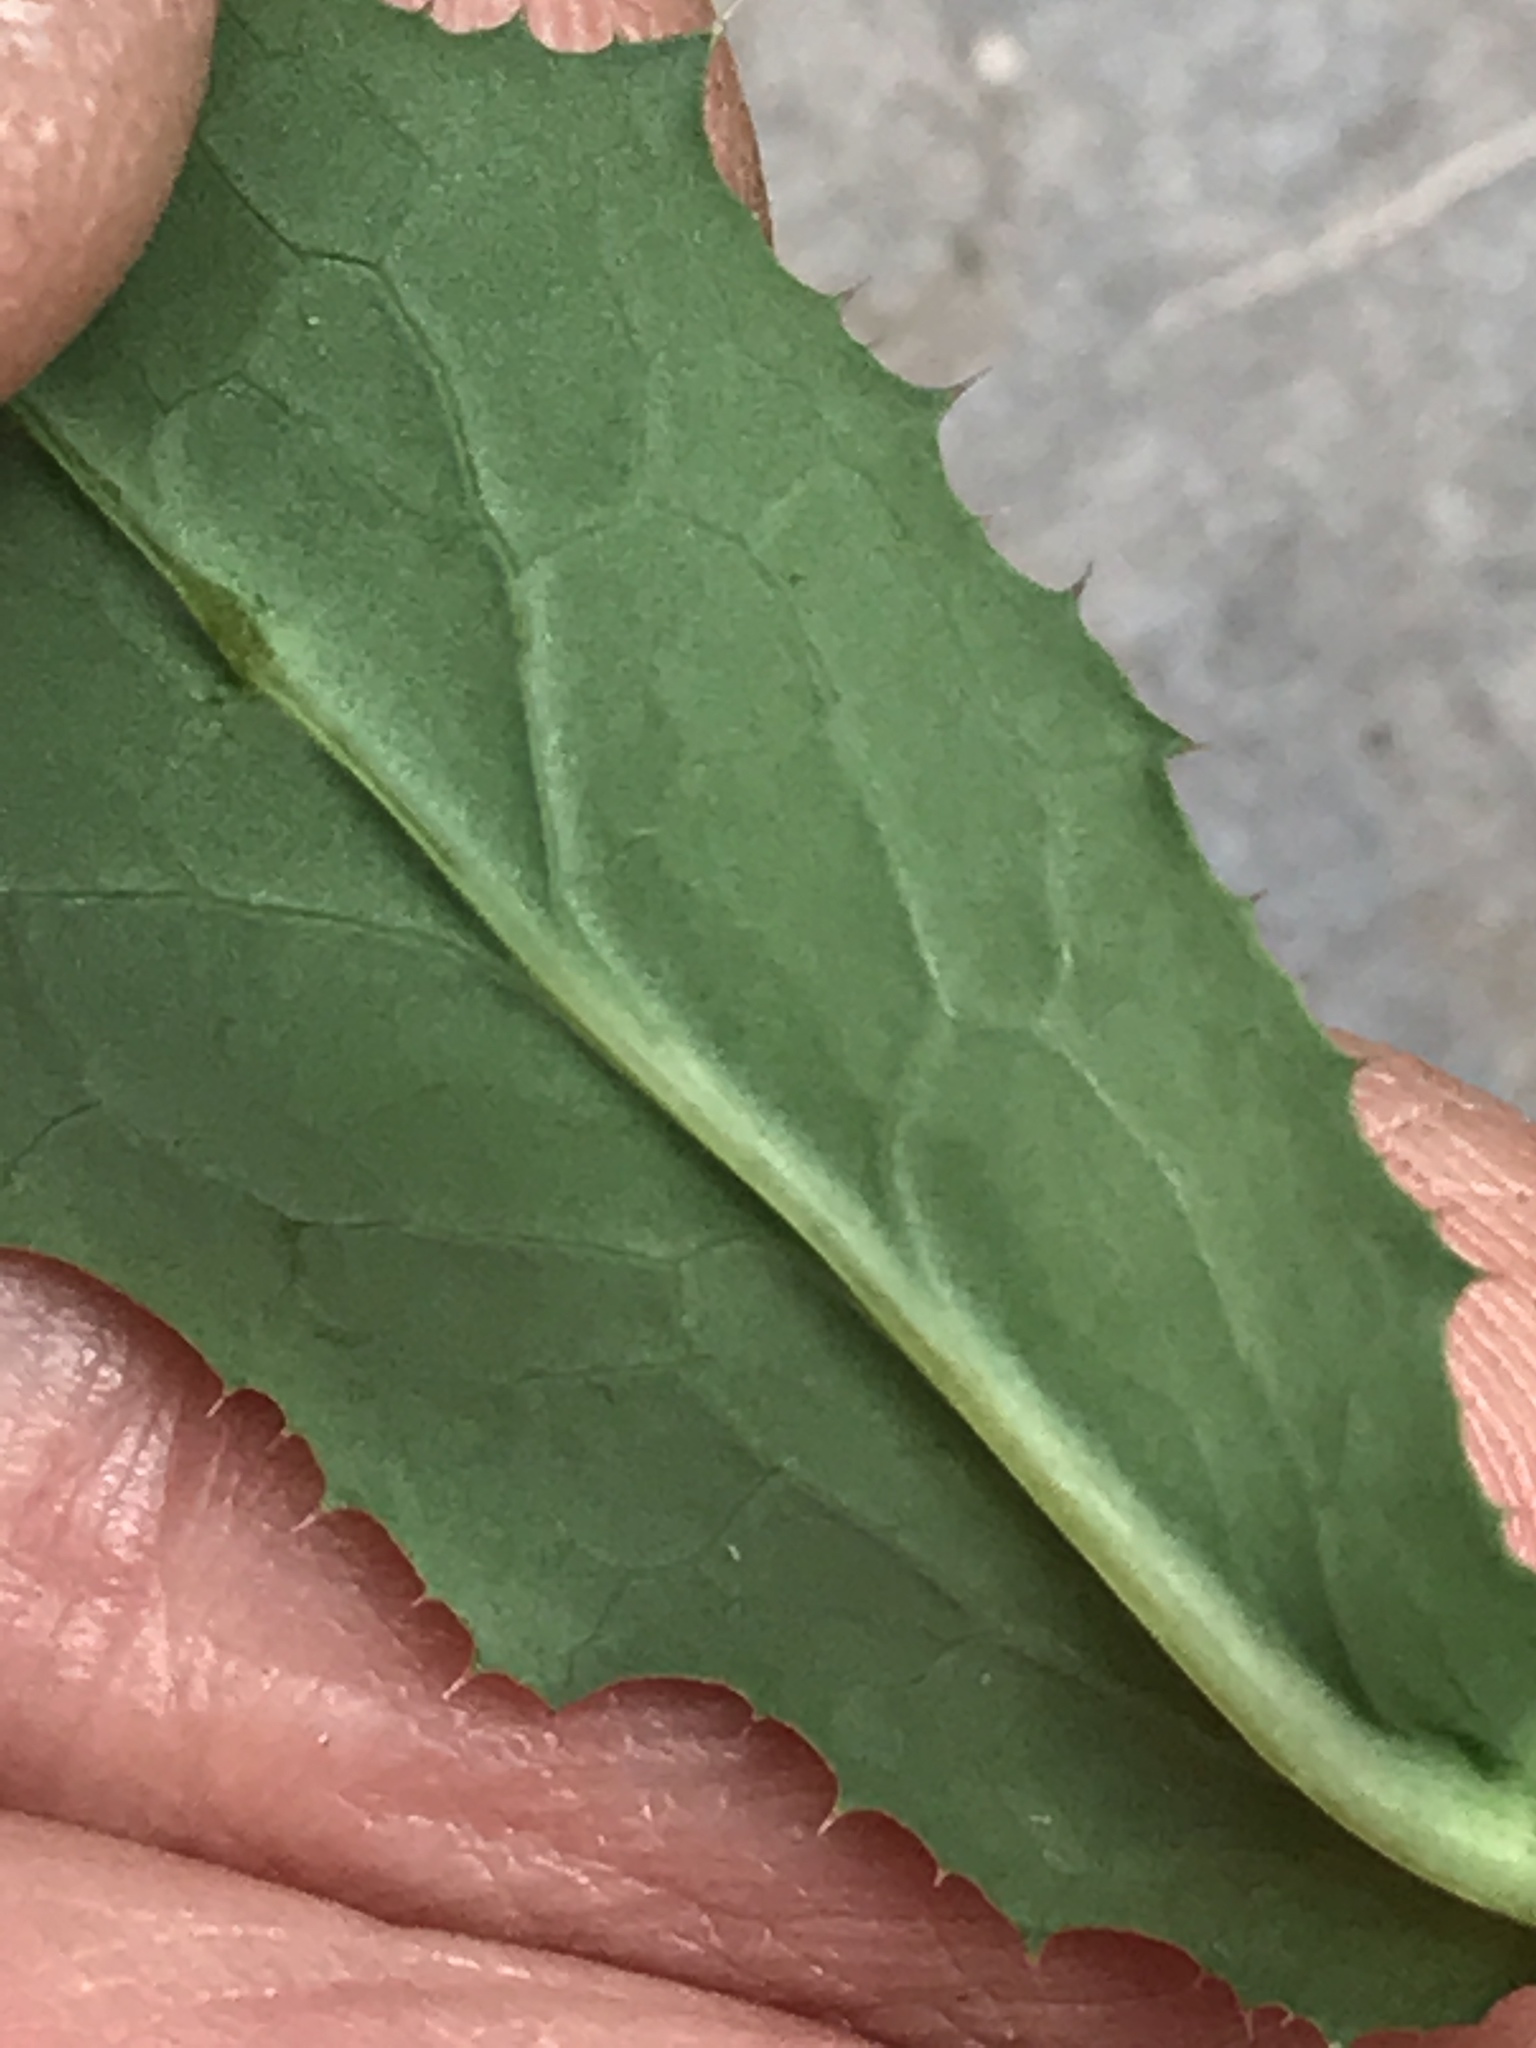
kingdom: Plantae
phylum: Tracheophyta
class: Magnoliopsida
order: Asterales
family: Asteraceae
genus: Sonchus
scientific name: Sonchus
